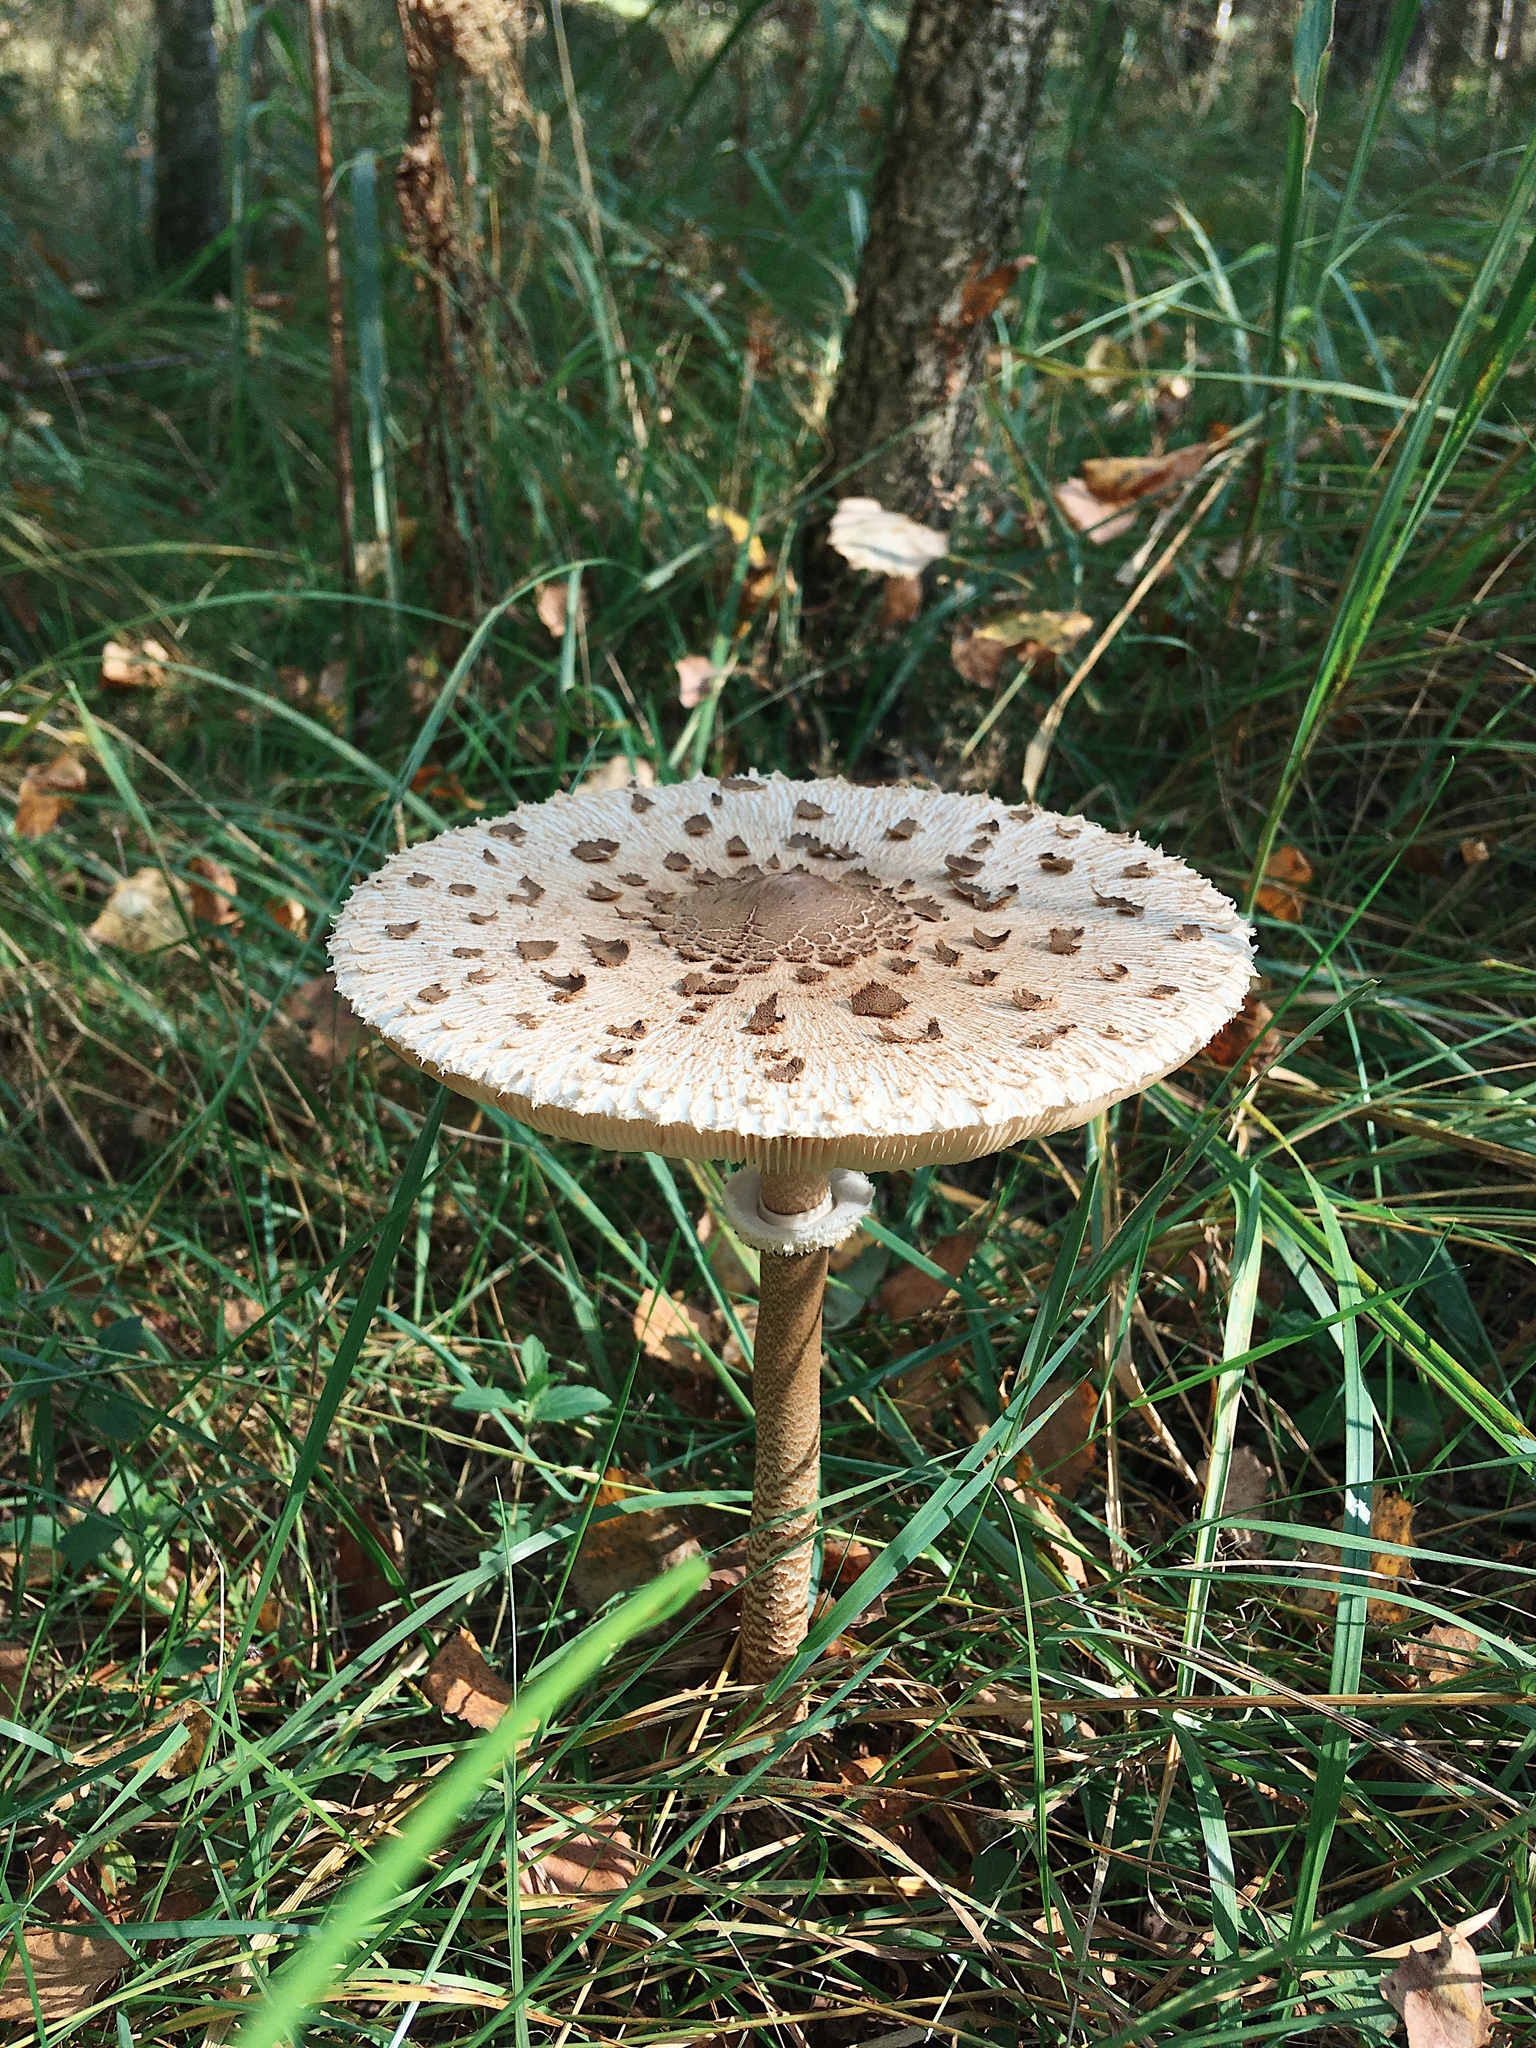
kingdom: Fungi
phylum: Basidiomycota
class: Agaricomycetes
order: Agaricales
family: Agaricaceae
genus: Macrolepiota
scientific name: Macrolepiota procera
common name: Parasol
